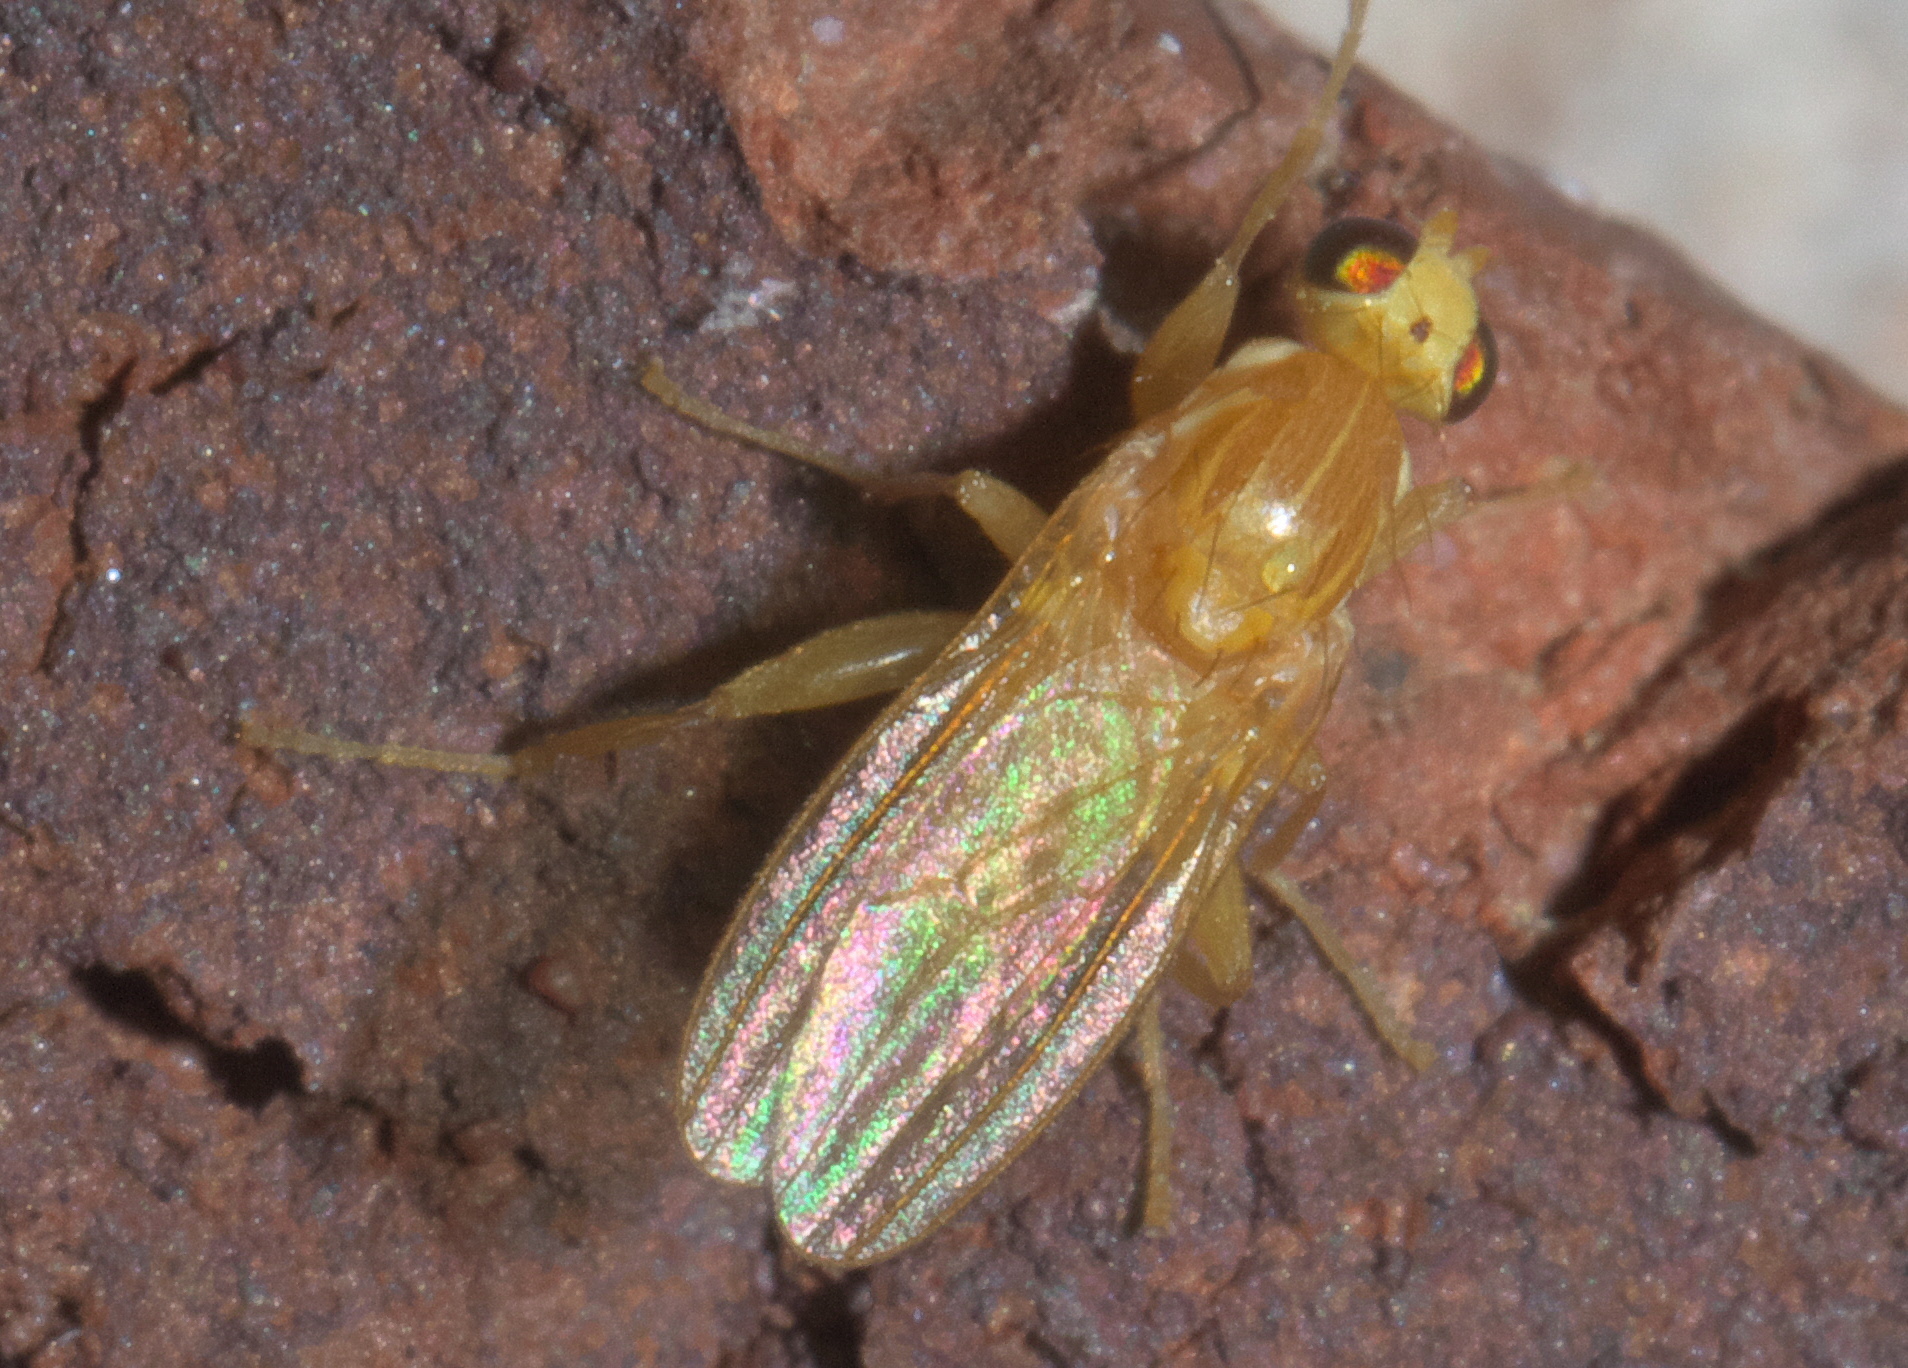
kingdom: Animalia
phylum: Arthropoda
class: Insecta
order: Diptera
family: Chyromyidae
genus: Chyromya
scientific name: Chyromya femorella
